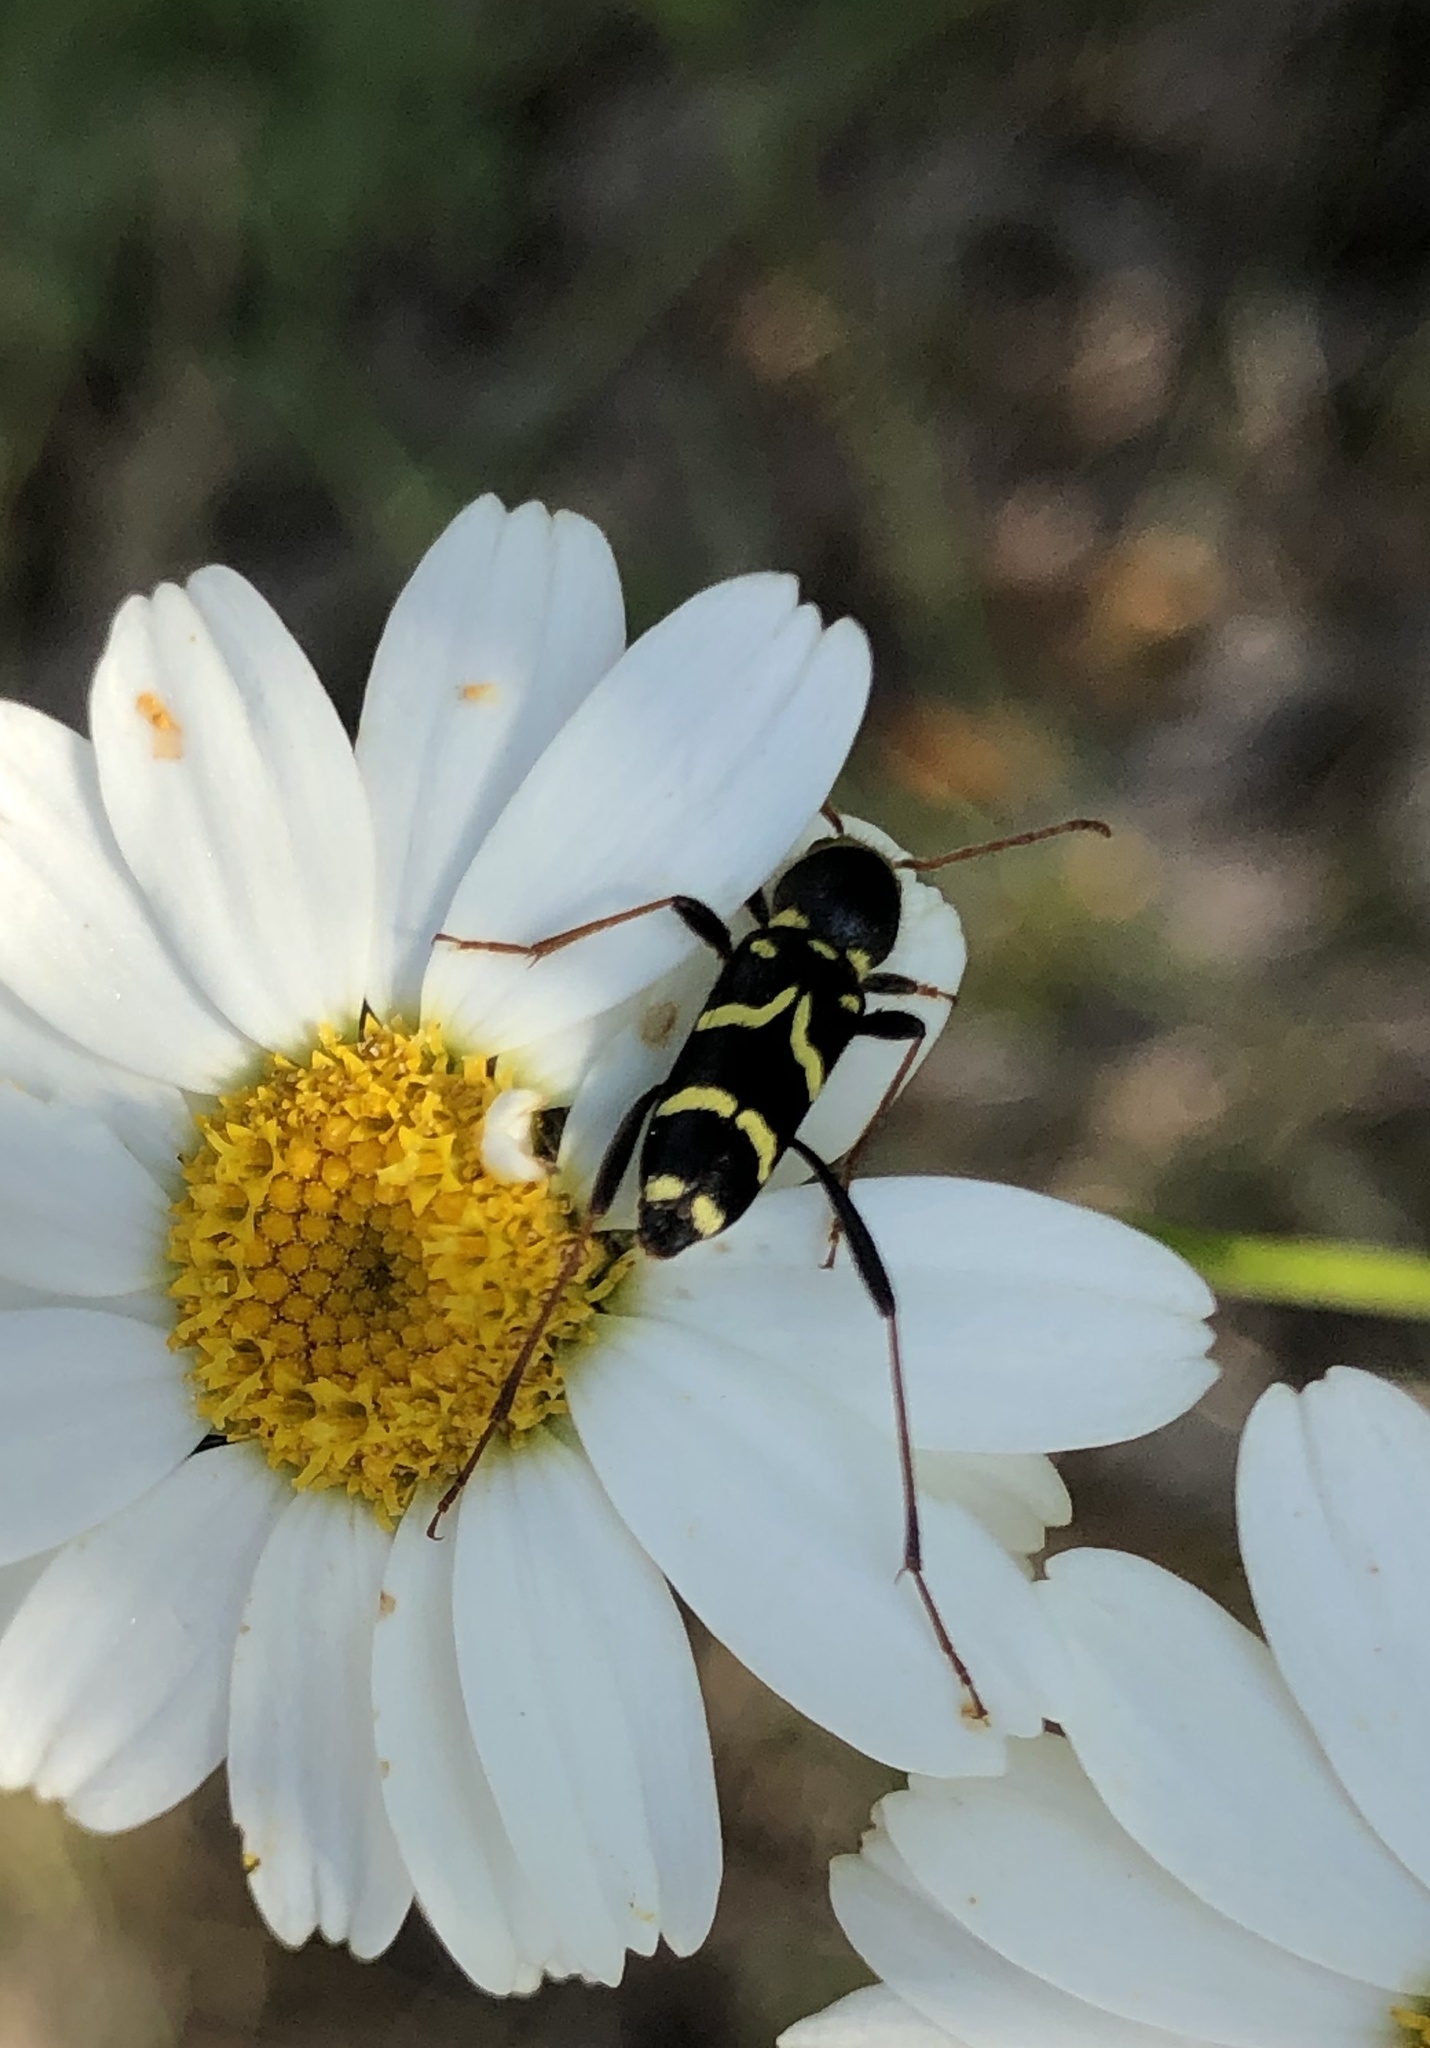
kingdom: Animalia
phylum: Arthropoda
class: Insecta
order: Coleoptera
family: Cerambycidae
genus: Clytus
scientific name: Clytus rhamni
